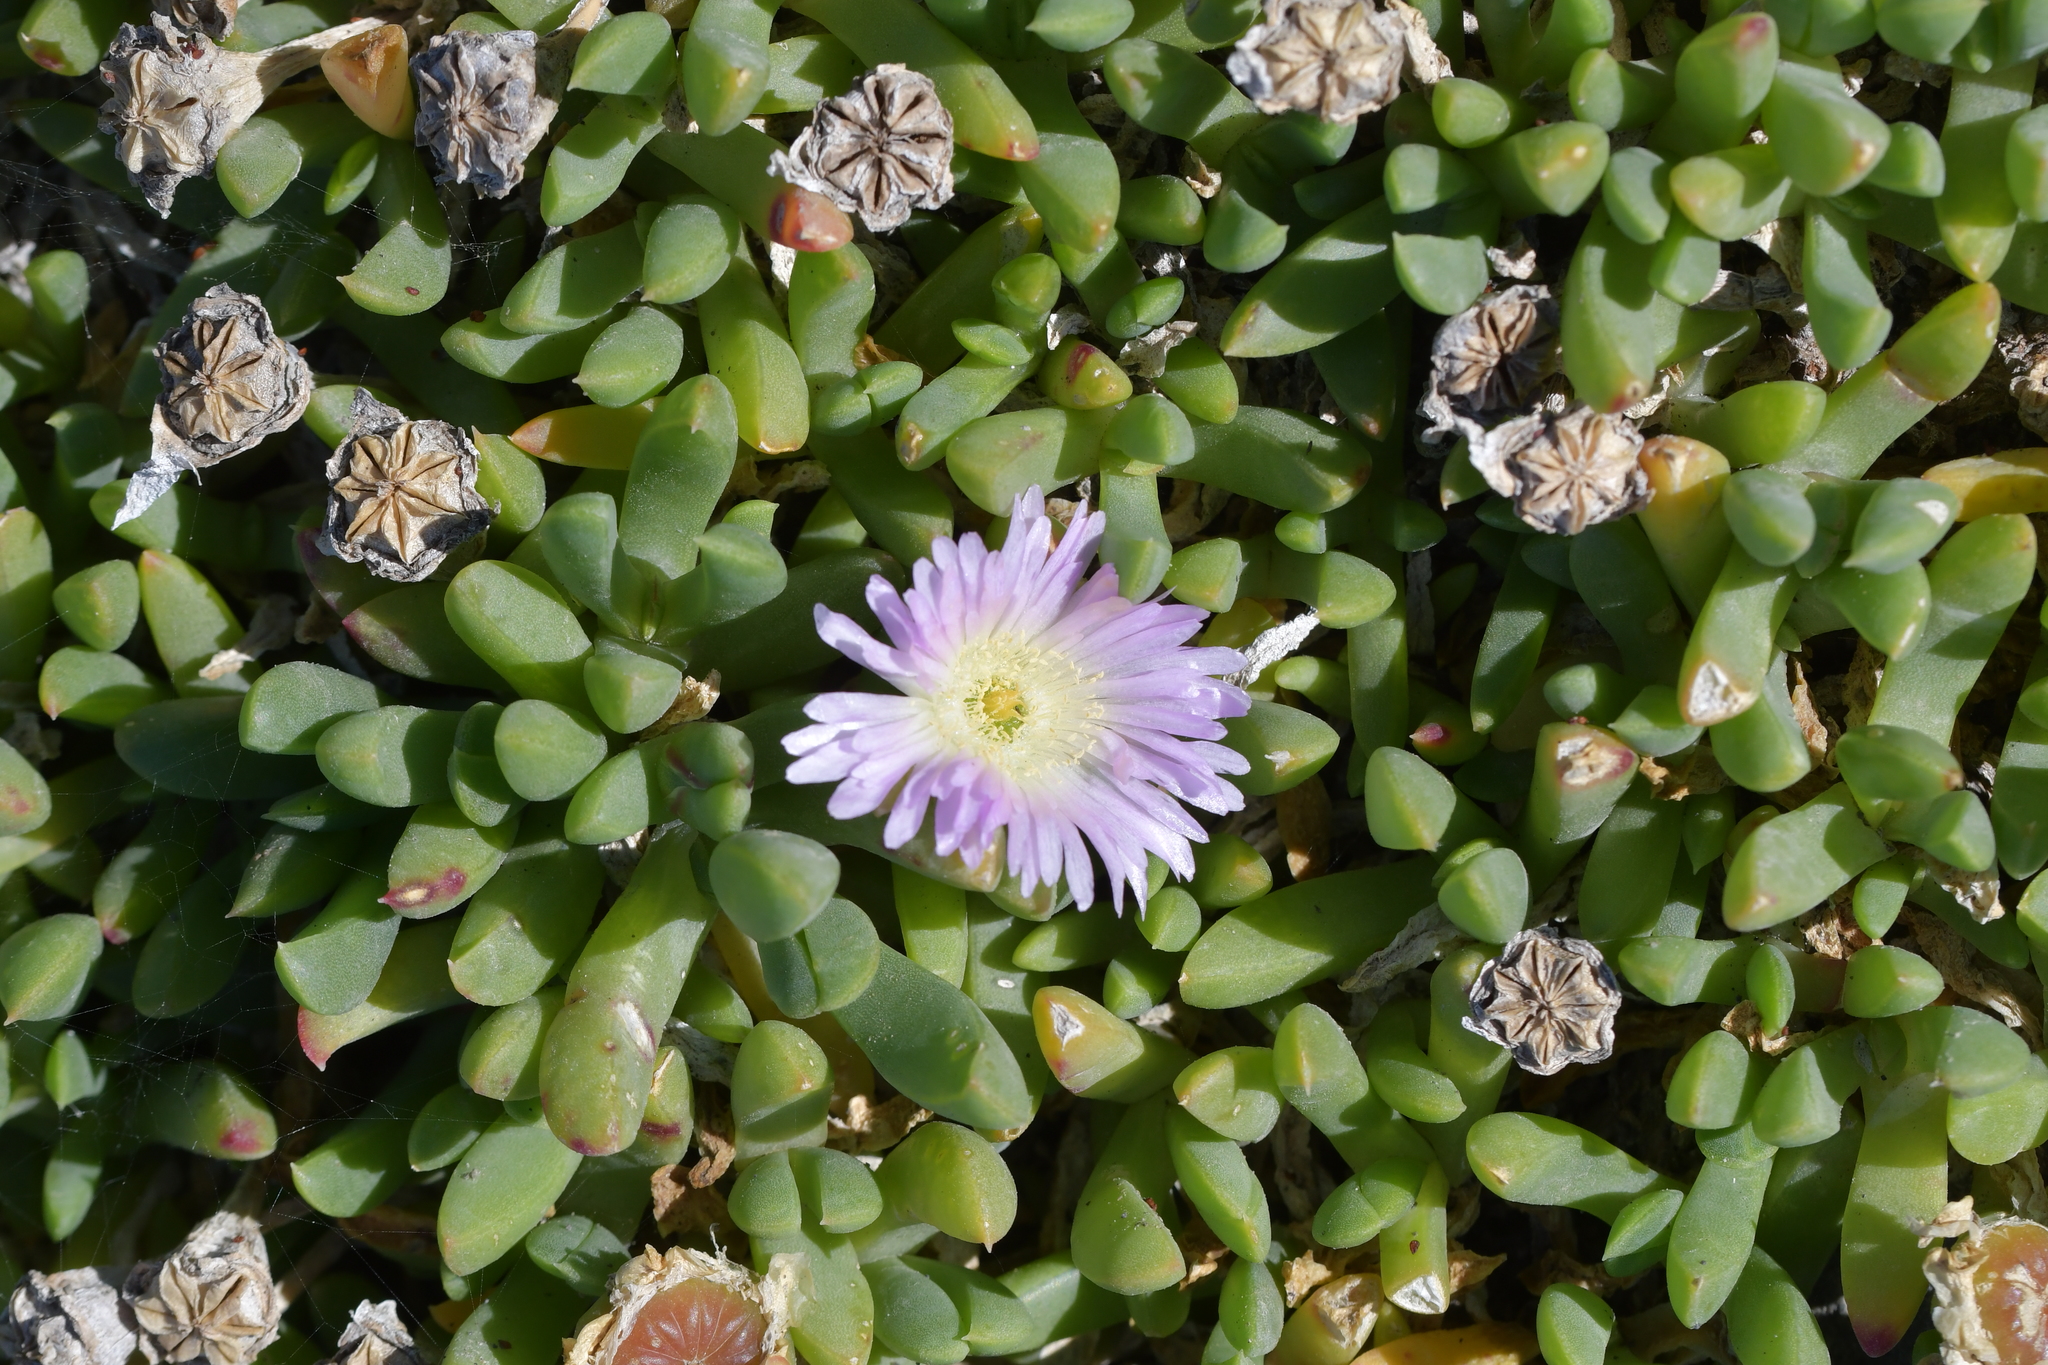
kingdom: Plantae
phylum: Tracheophyta
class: Magnoliopsida
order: Caryophyllales
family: Aizoaceae
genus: Disphyma
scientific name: Disphyma australe
